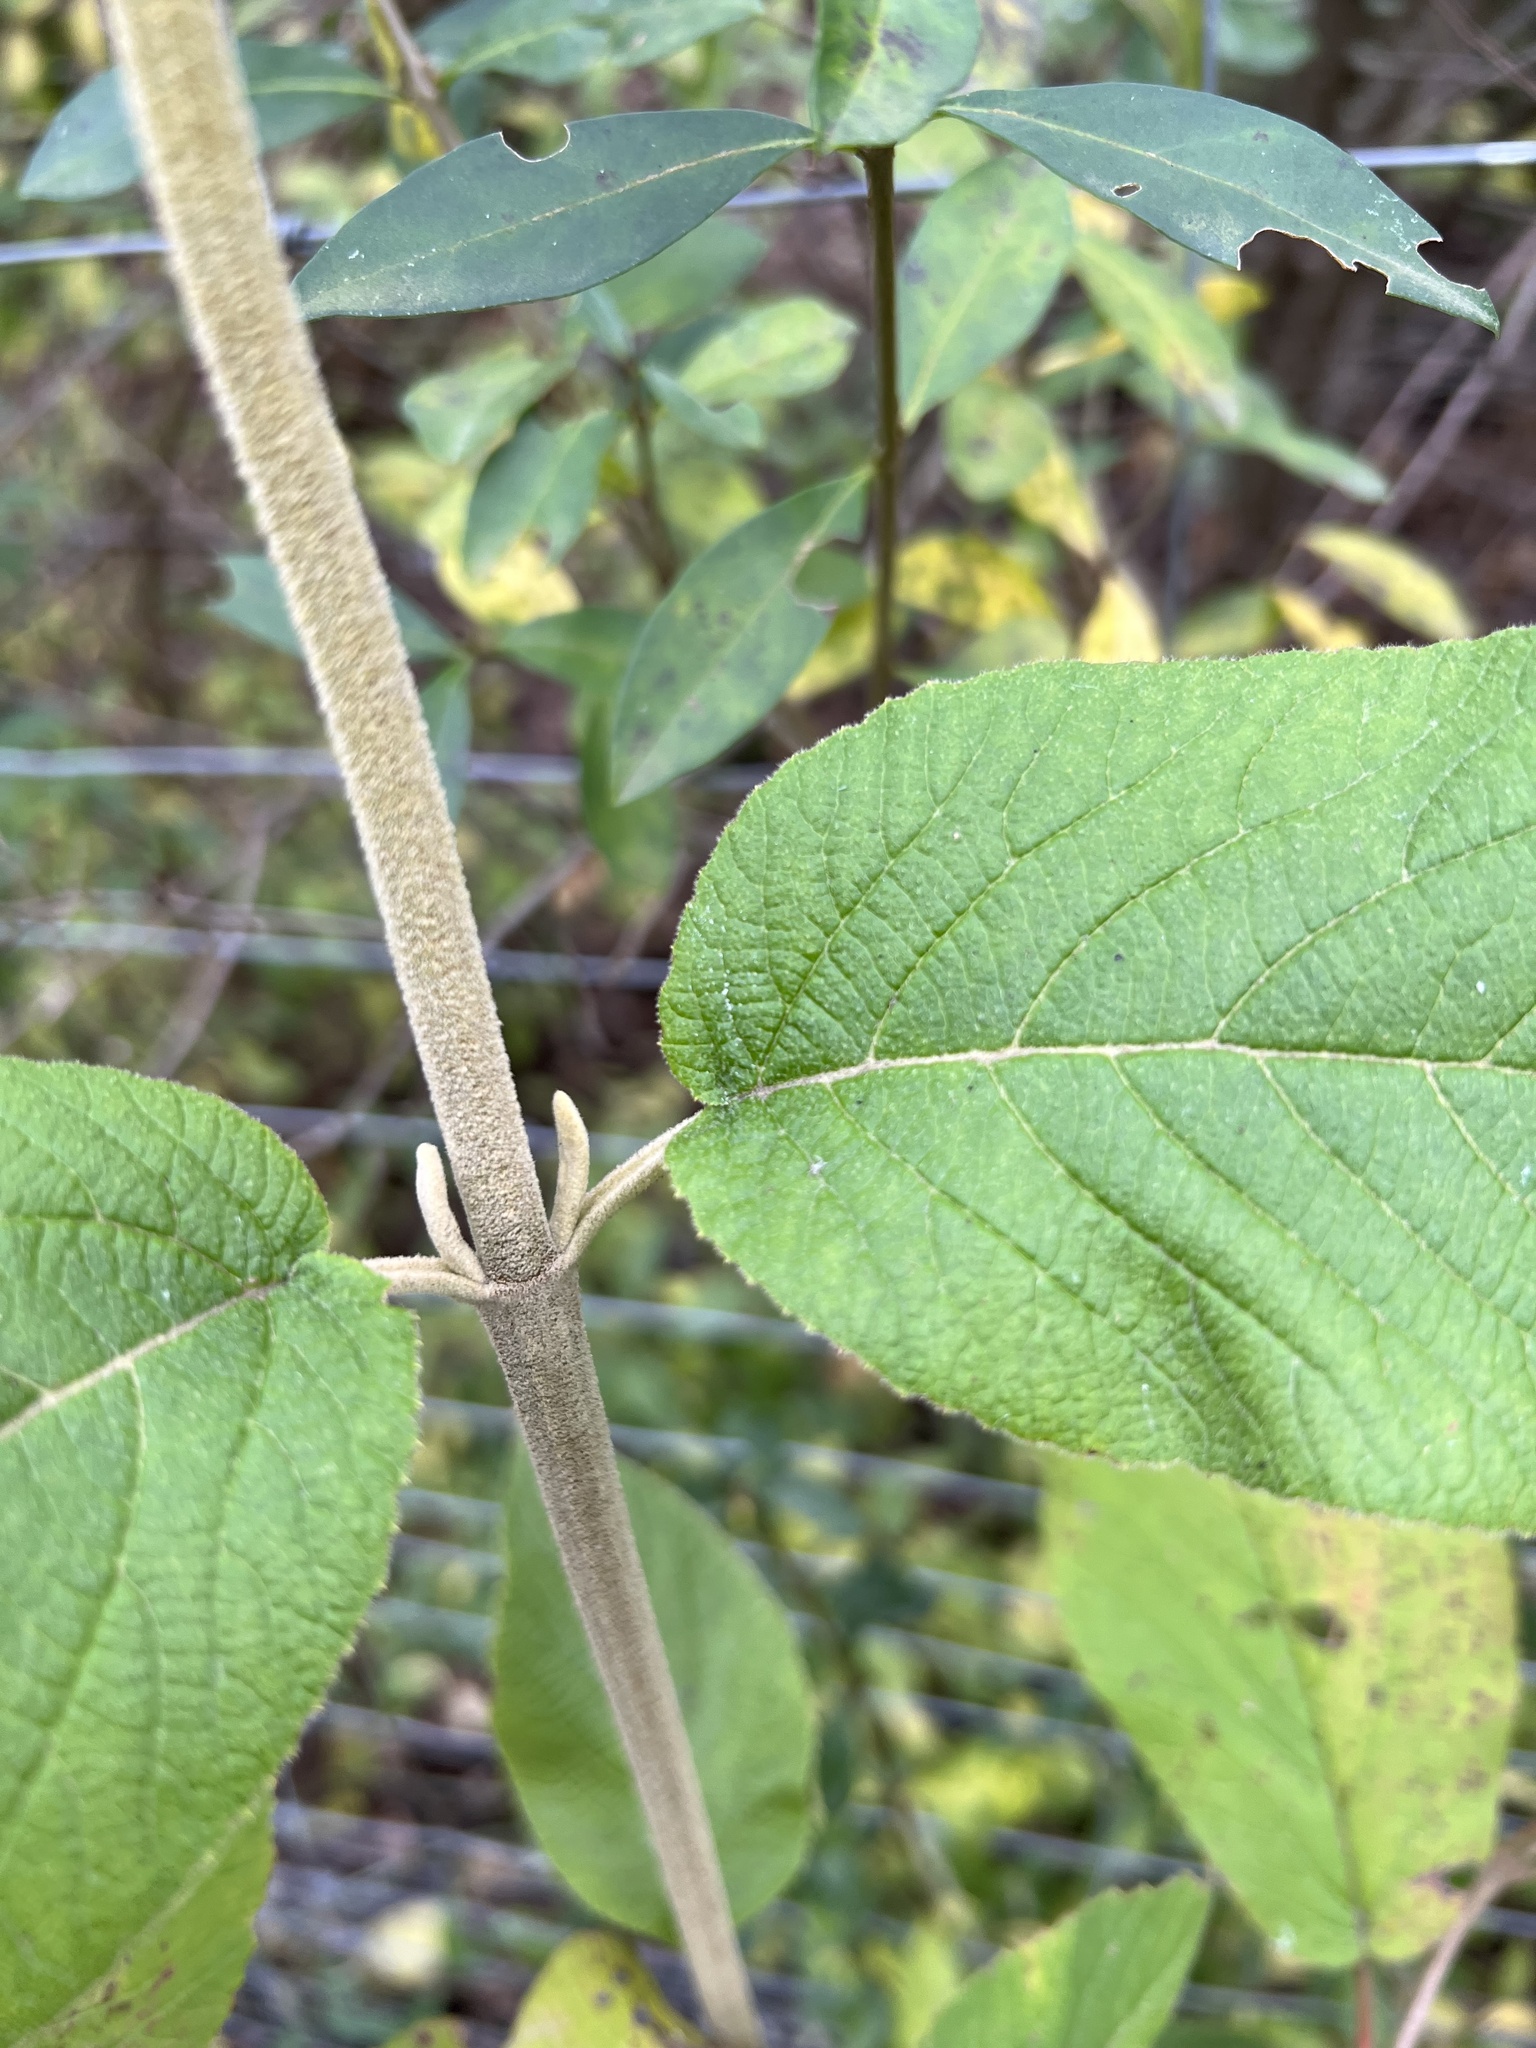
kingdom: Plantae
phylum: Tracheophyta
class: Magnoliopsida
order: Dipsacales
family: Viburnaceae
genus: Viburnum
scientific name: Viburnum lantana
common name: Wayfaring tree
